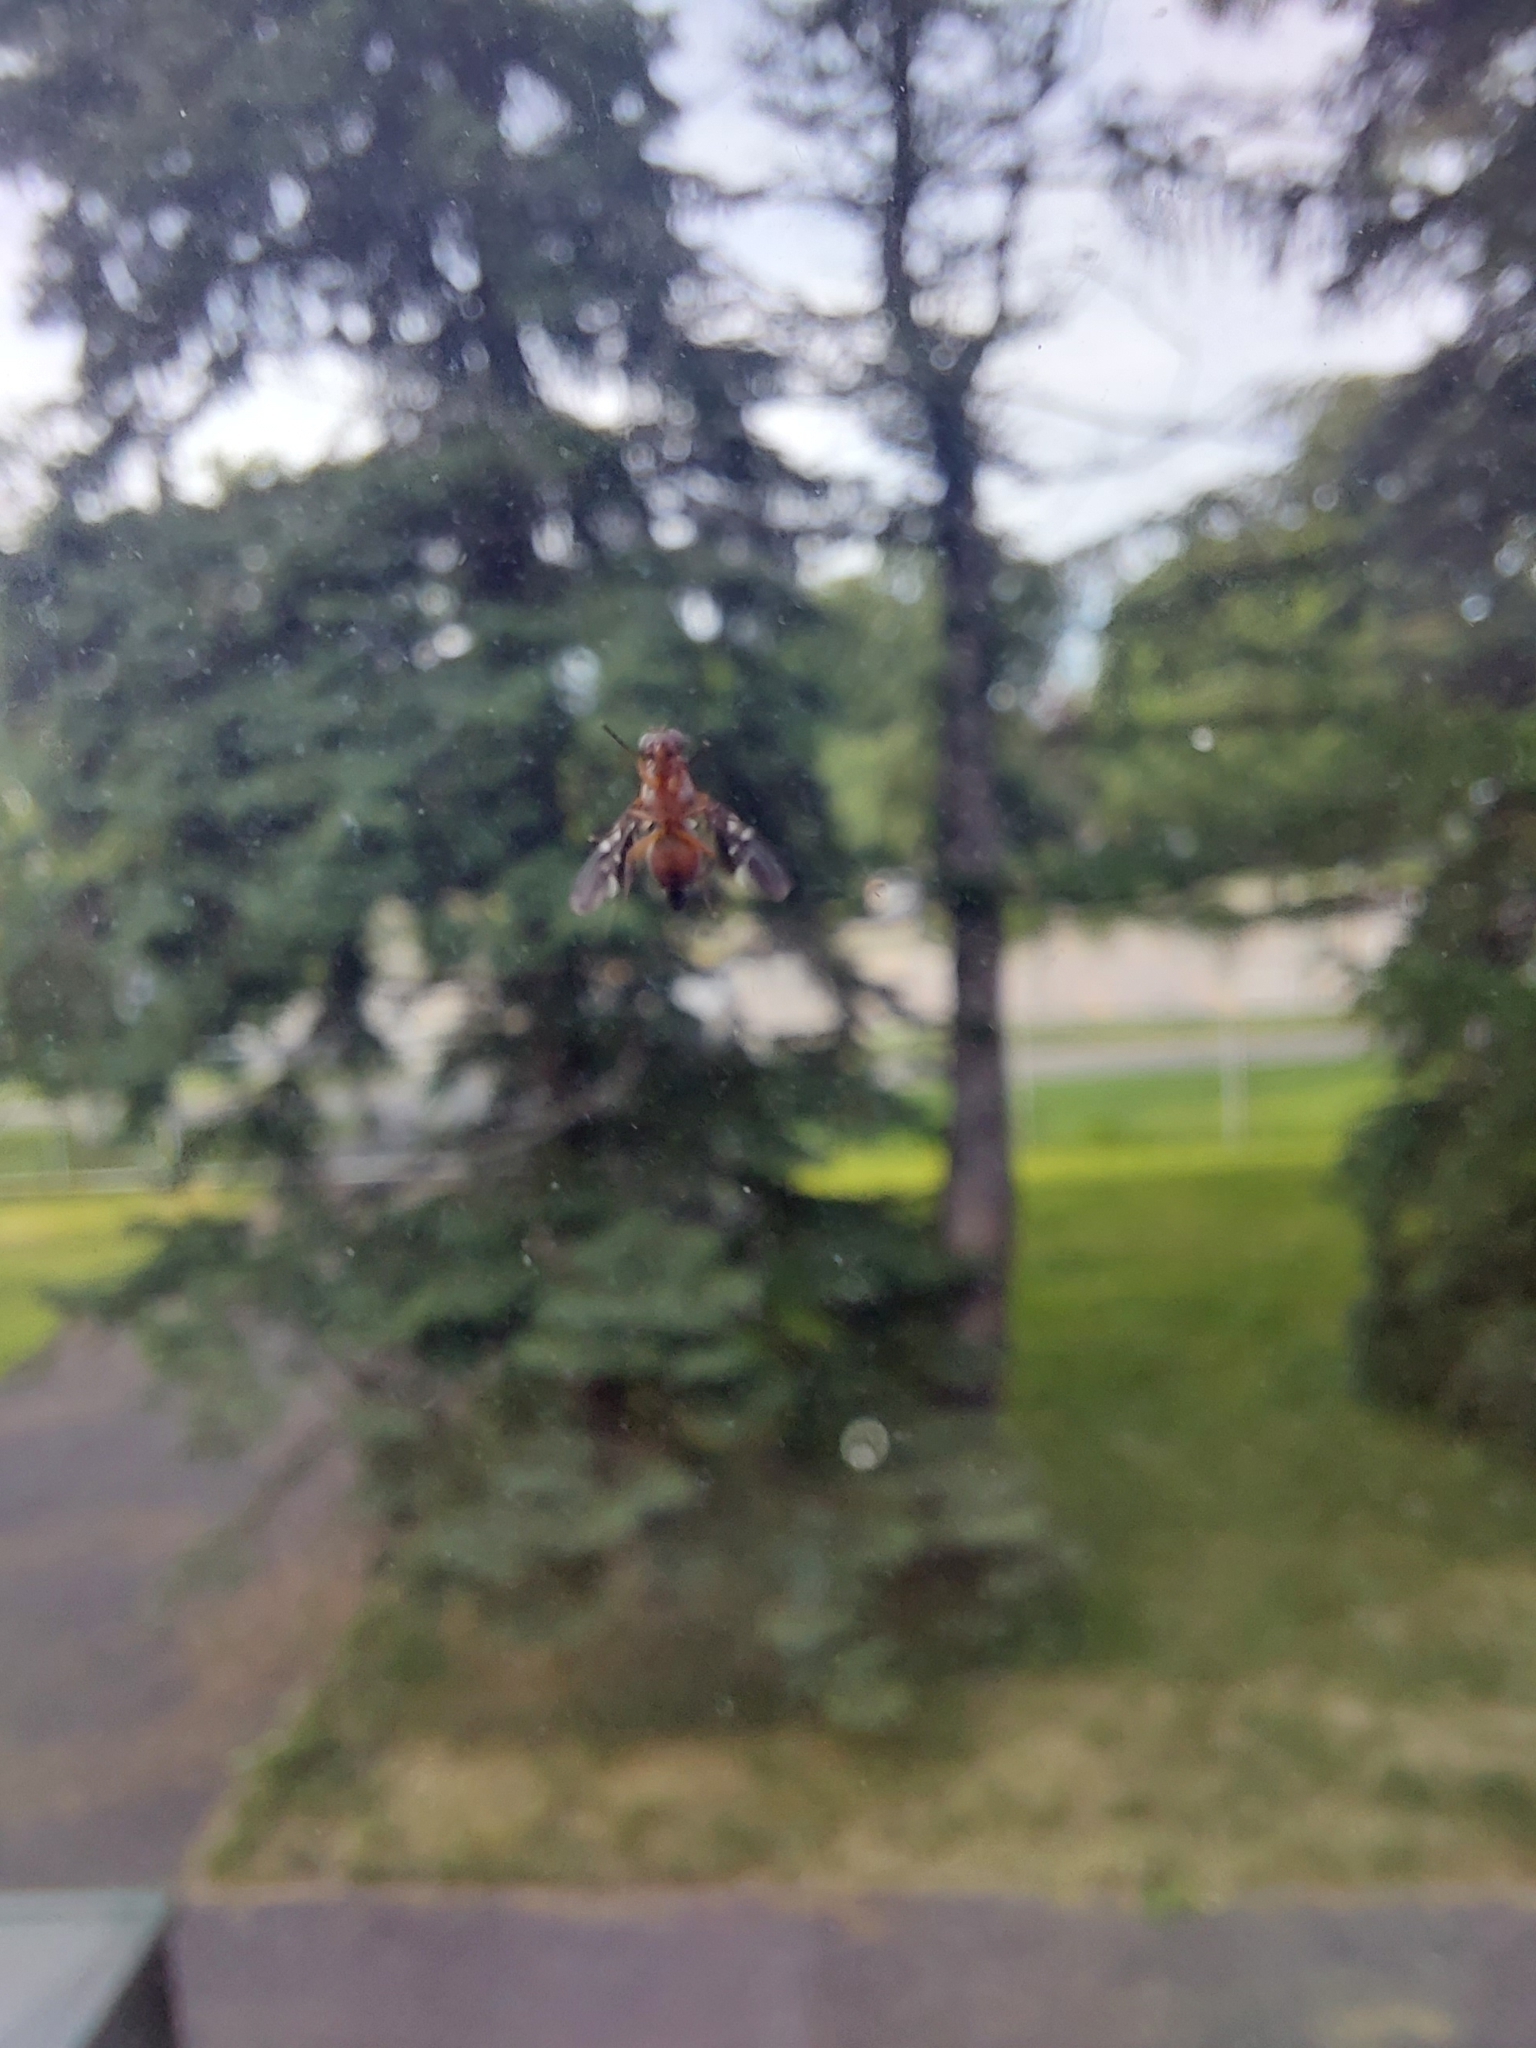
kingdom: Animalia
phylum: Arthropoda
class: Insecta
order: Diptera
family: Ulidiidae
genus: Delphinia
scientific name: Delphinia picta
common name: Common picture-winged fly
